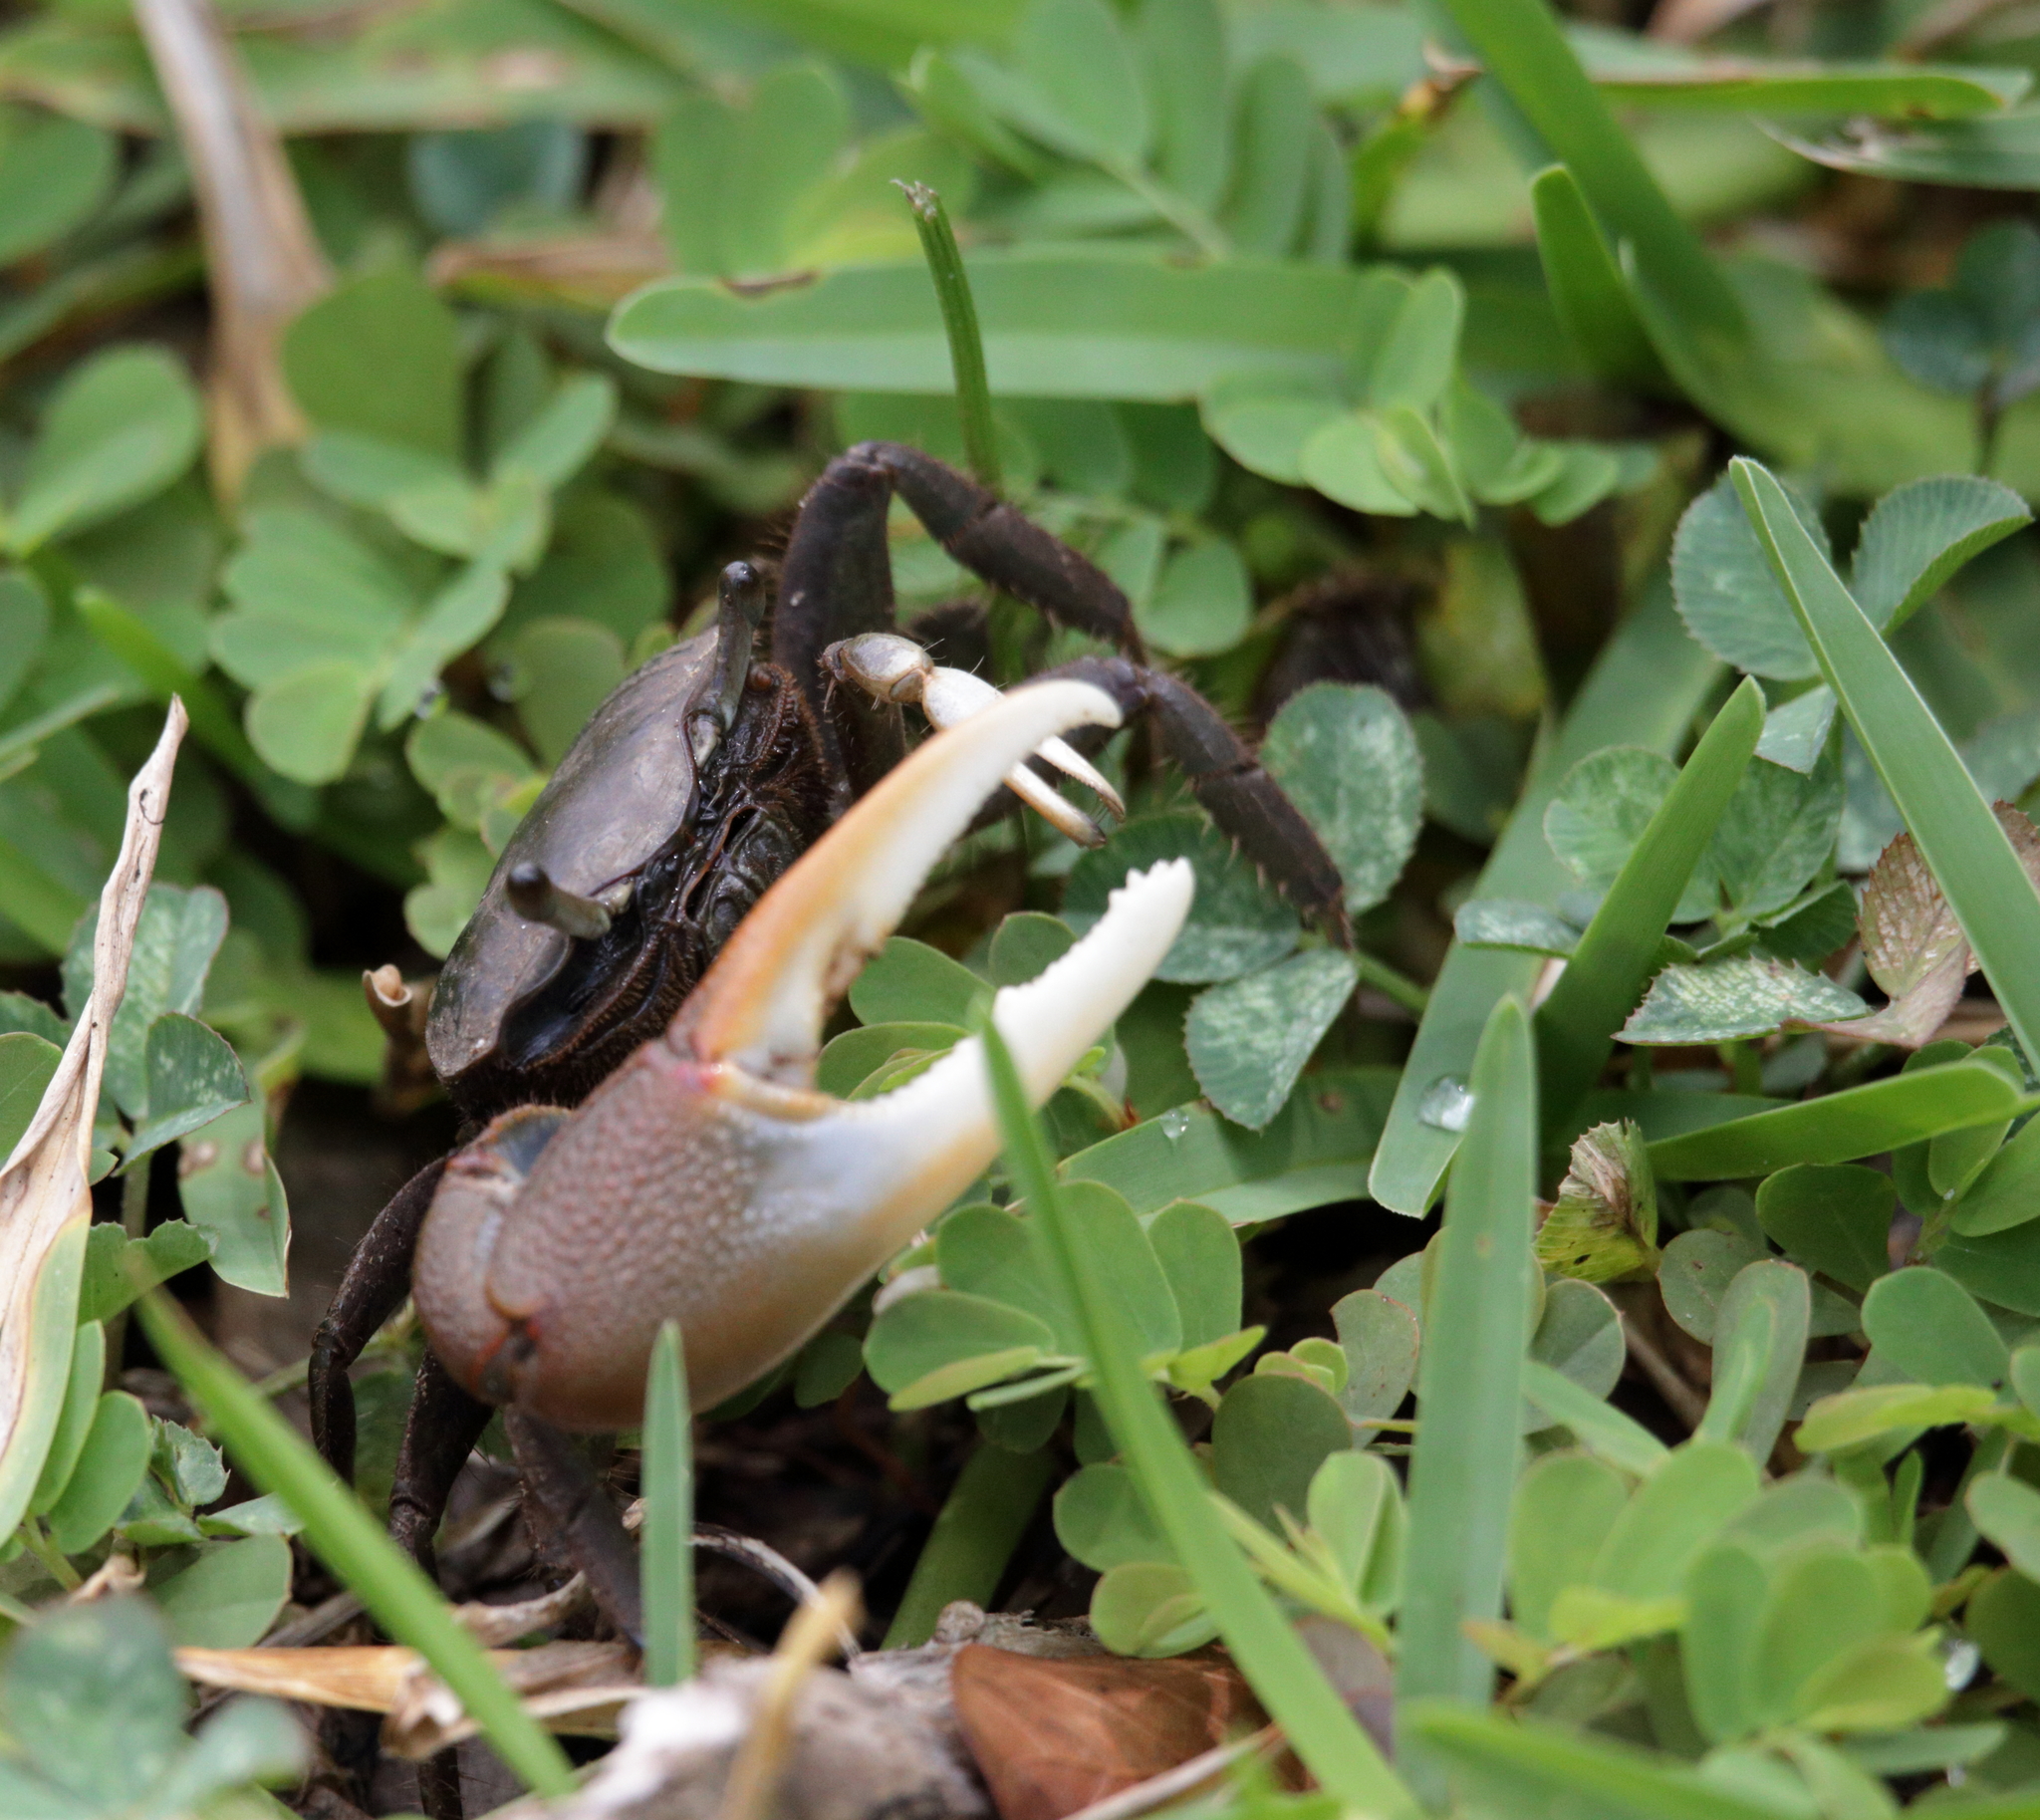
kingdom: Animalia
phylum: Arthropoda
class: Malacostraca
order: Decapoda
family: Ocypodidae
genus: Minuca
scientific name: Minuca minax
